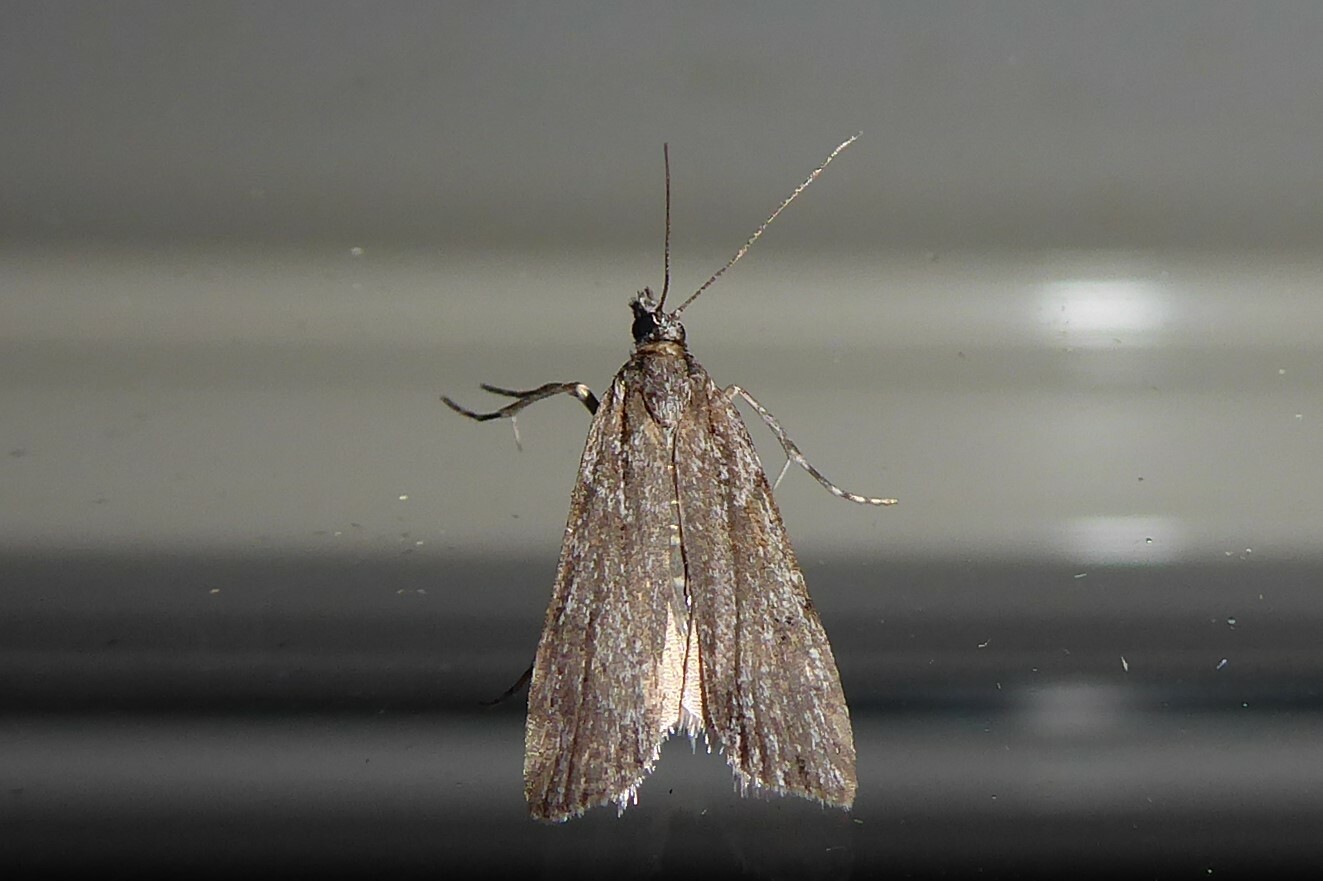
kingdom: Animalia
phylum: Arthropoda
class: Insecta
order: Lepidoptera
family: Crambidae
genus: Scoparia
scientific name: Scoparia chalicodes
